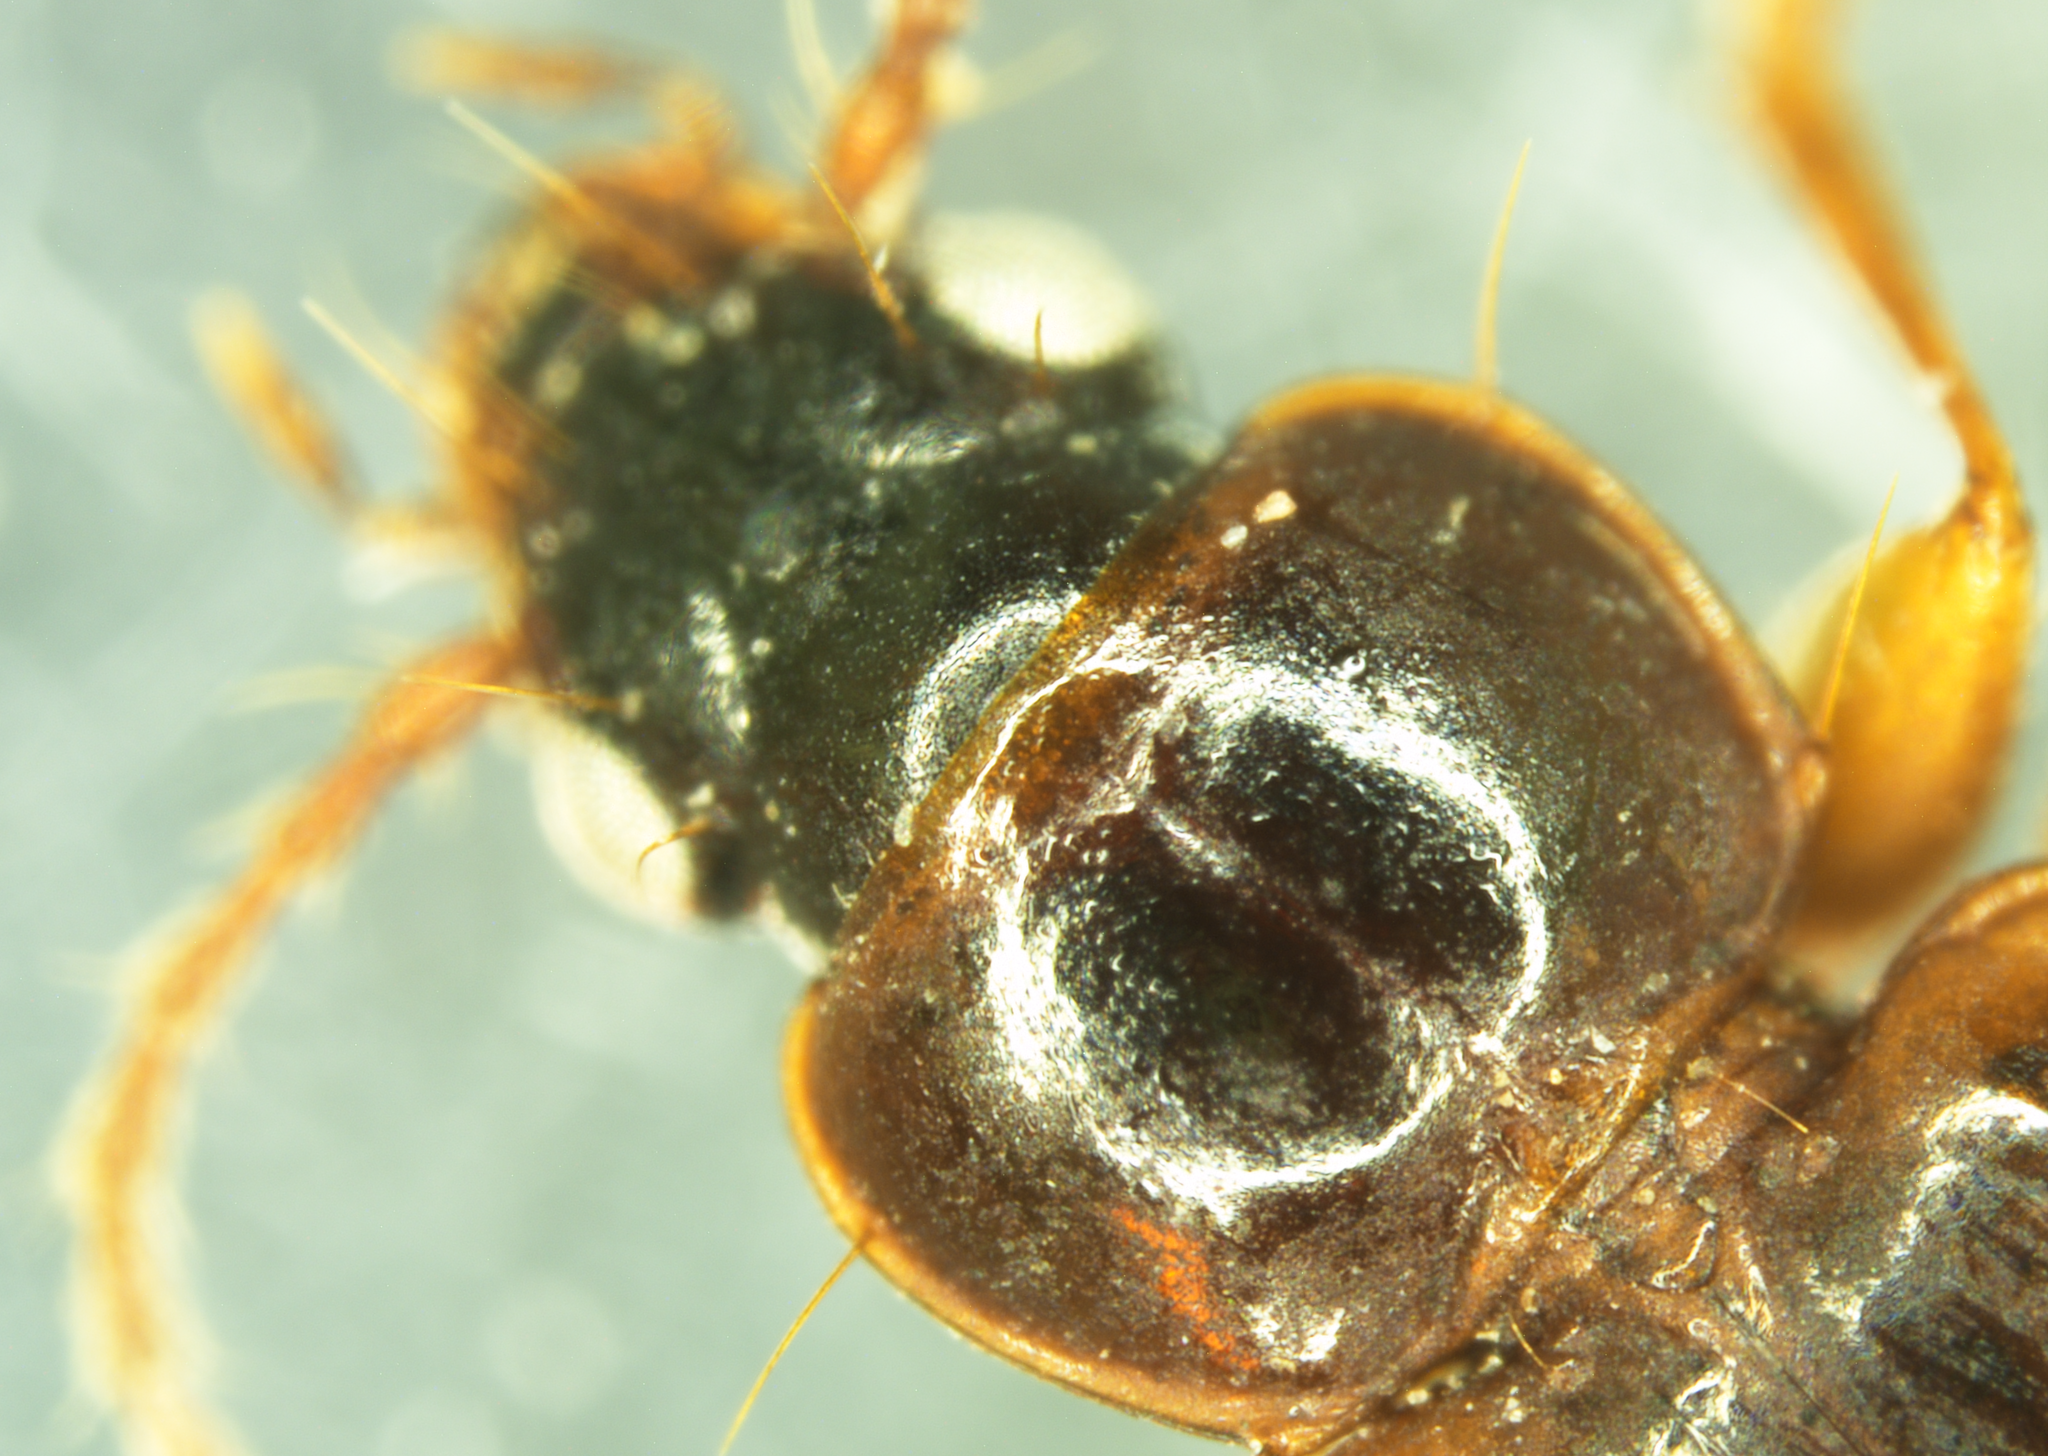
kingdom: Animalia
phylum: Arthropoda
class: Insecta
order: Coleoptera
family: Carabidae
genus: Trechus
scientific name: Trechus quadristriatus
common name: Four-striated riverbank ground beetle
